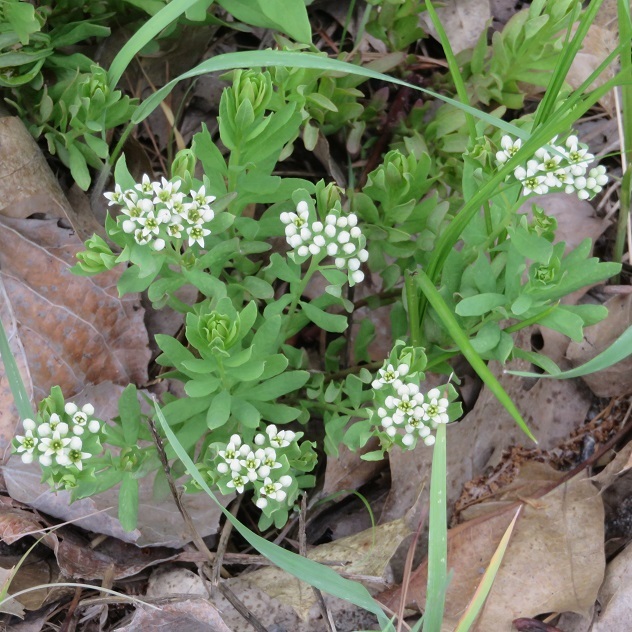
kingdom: Plantae
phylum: Tracheophyta
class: Magnoliopsida
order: Santalales
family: Comandraceae
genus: Comandra
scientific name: Comandra umbellata
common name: Bastard toadflax
